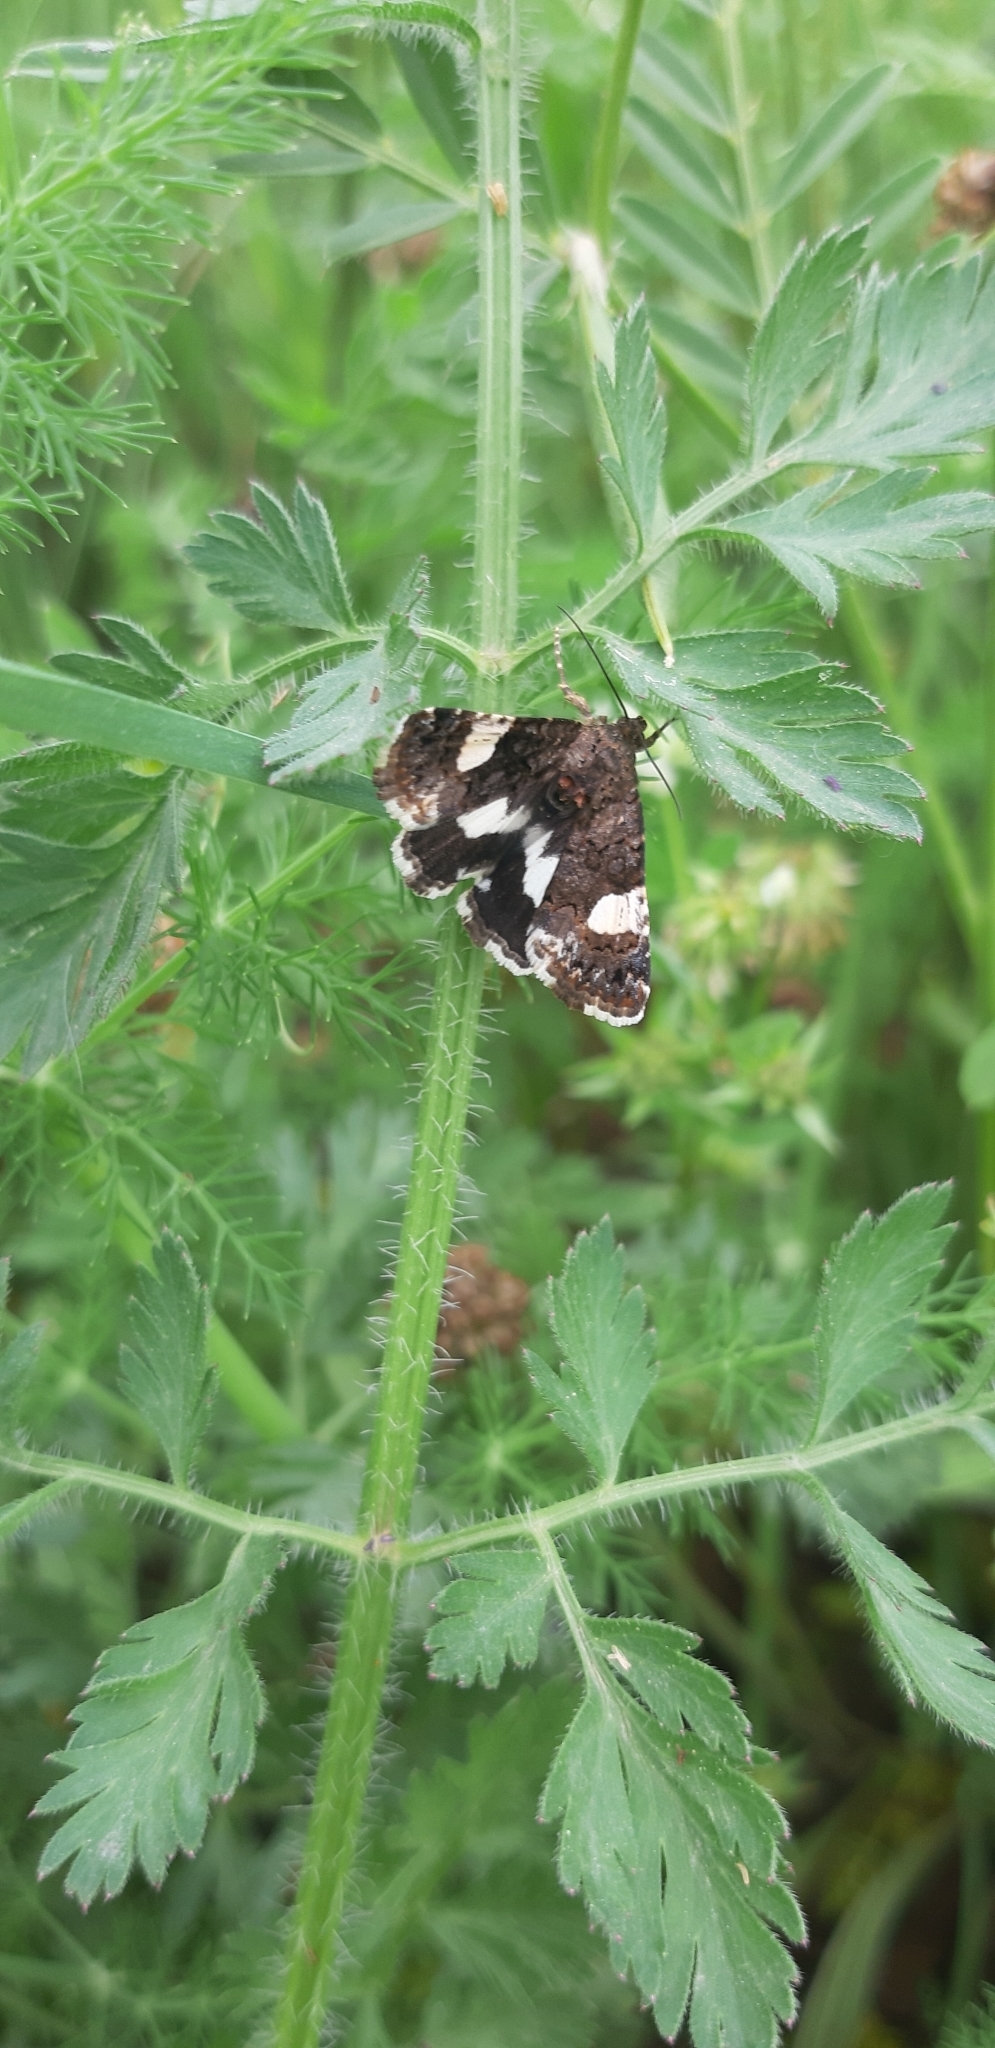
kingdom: Animalia
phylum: Arthropoda
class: Insecta
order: Lepidoptera
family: Erebidae
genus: Tyta
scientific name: Tyta luctuosa
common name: Four-spotted
